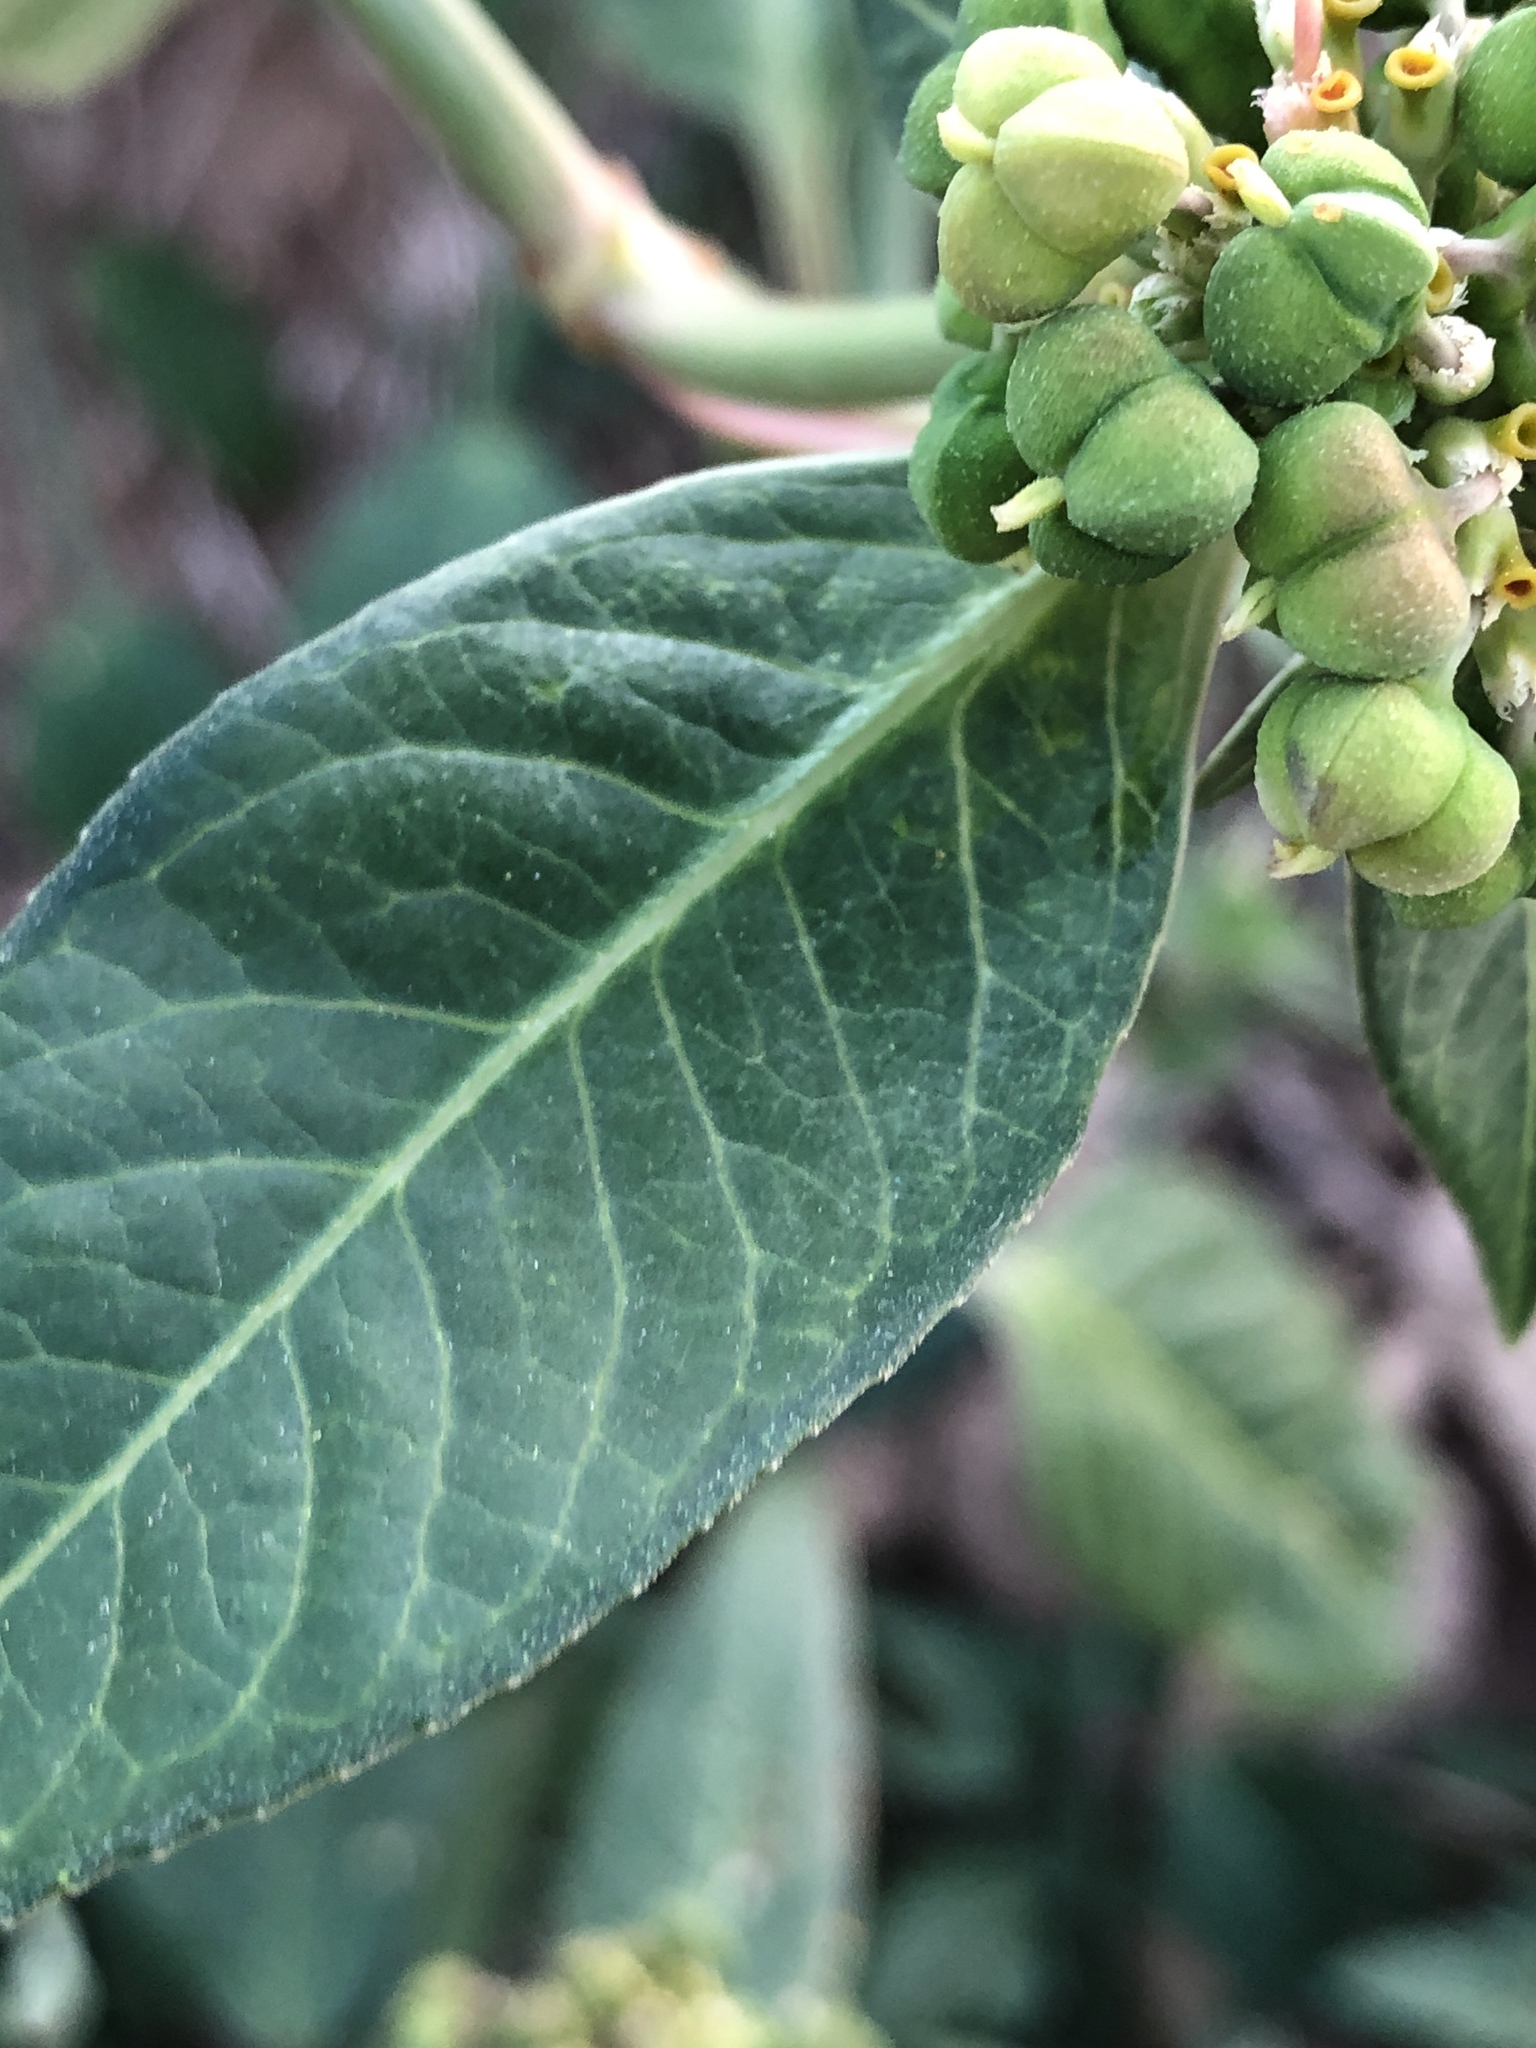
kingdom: Plantae
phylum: Tracheophyta
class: Magnoliopsida
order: Malpighiales
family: Euphorbiaceae
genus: Euphorbia
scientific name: Euphorbia heterophylla
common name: Mexican fireplant
